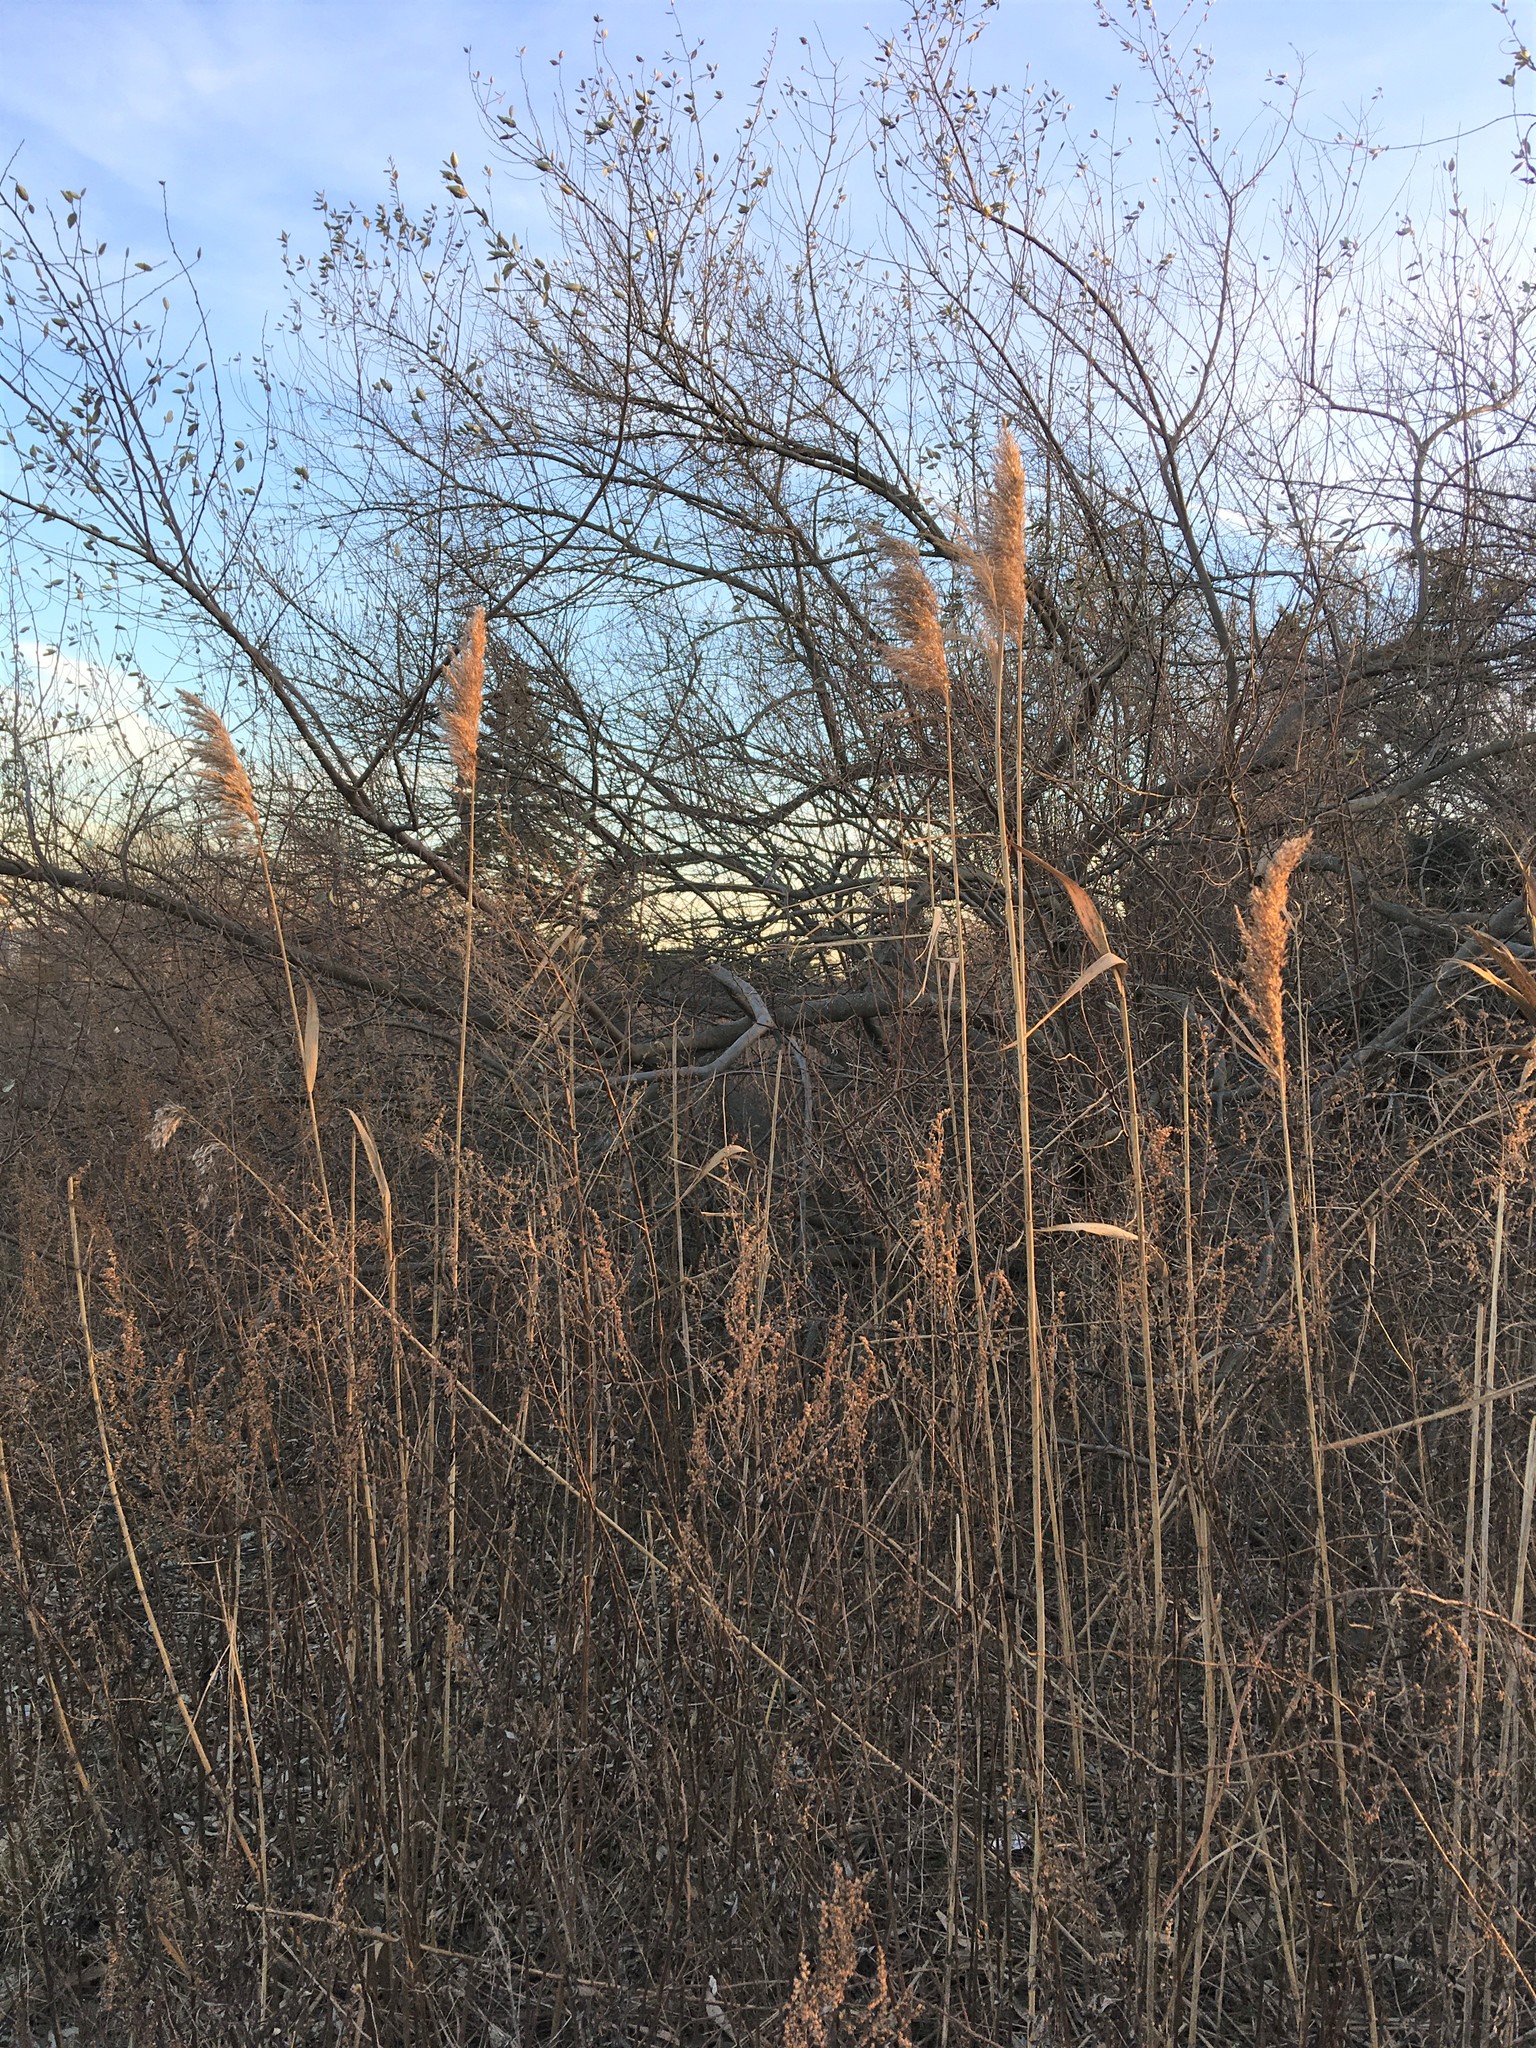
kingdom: Plantae
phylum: Tracheophyta
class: Liliopsida
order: Poales
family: Poaceae
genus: Phragmites
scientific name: Phragmites australis
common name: Common reed
